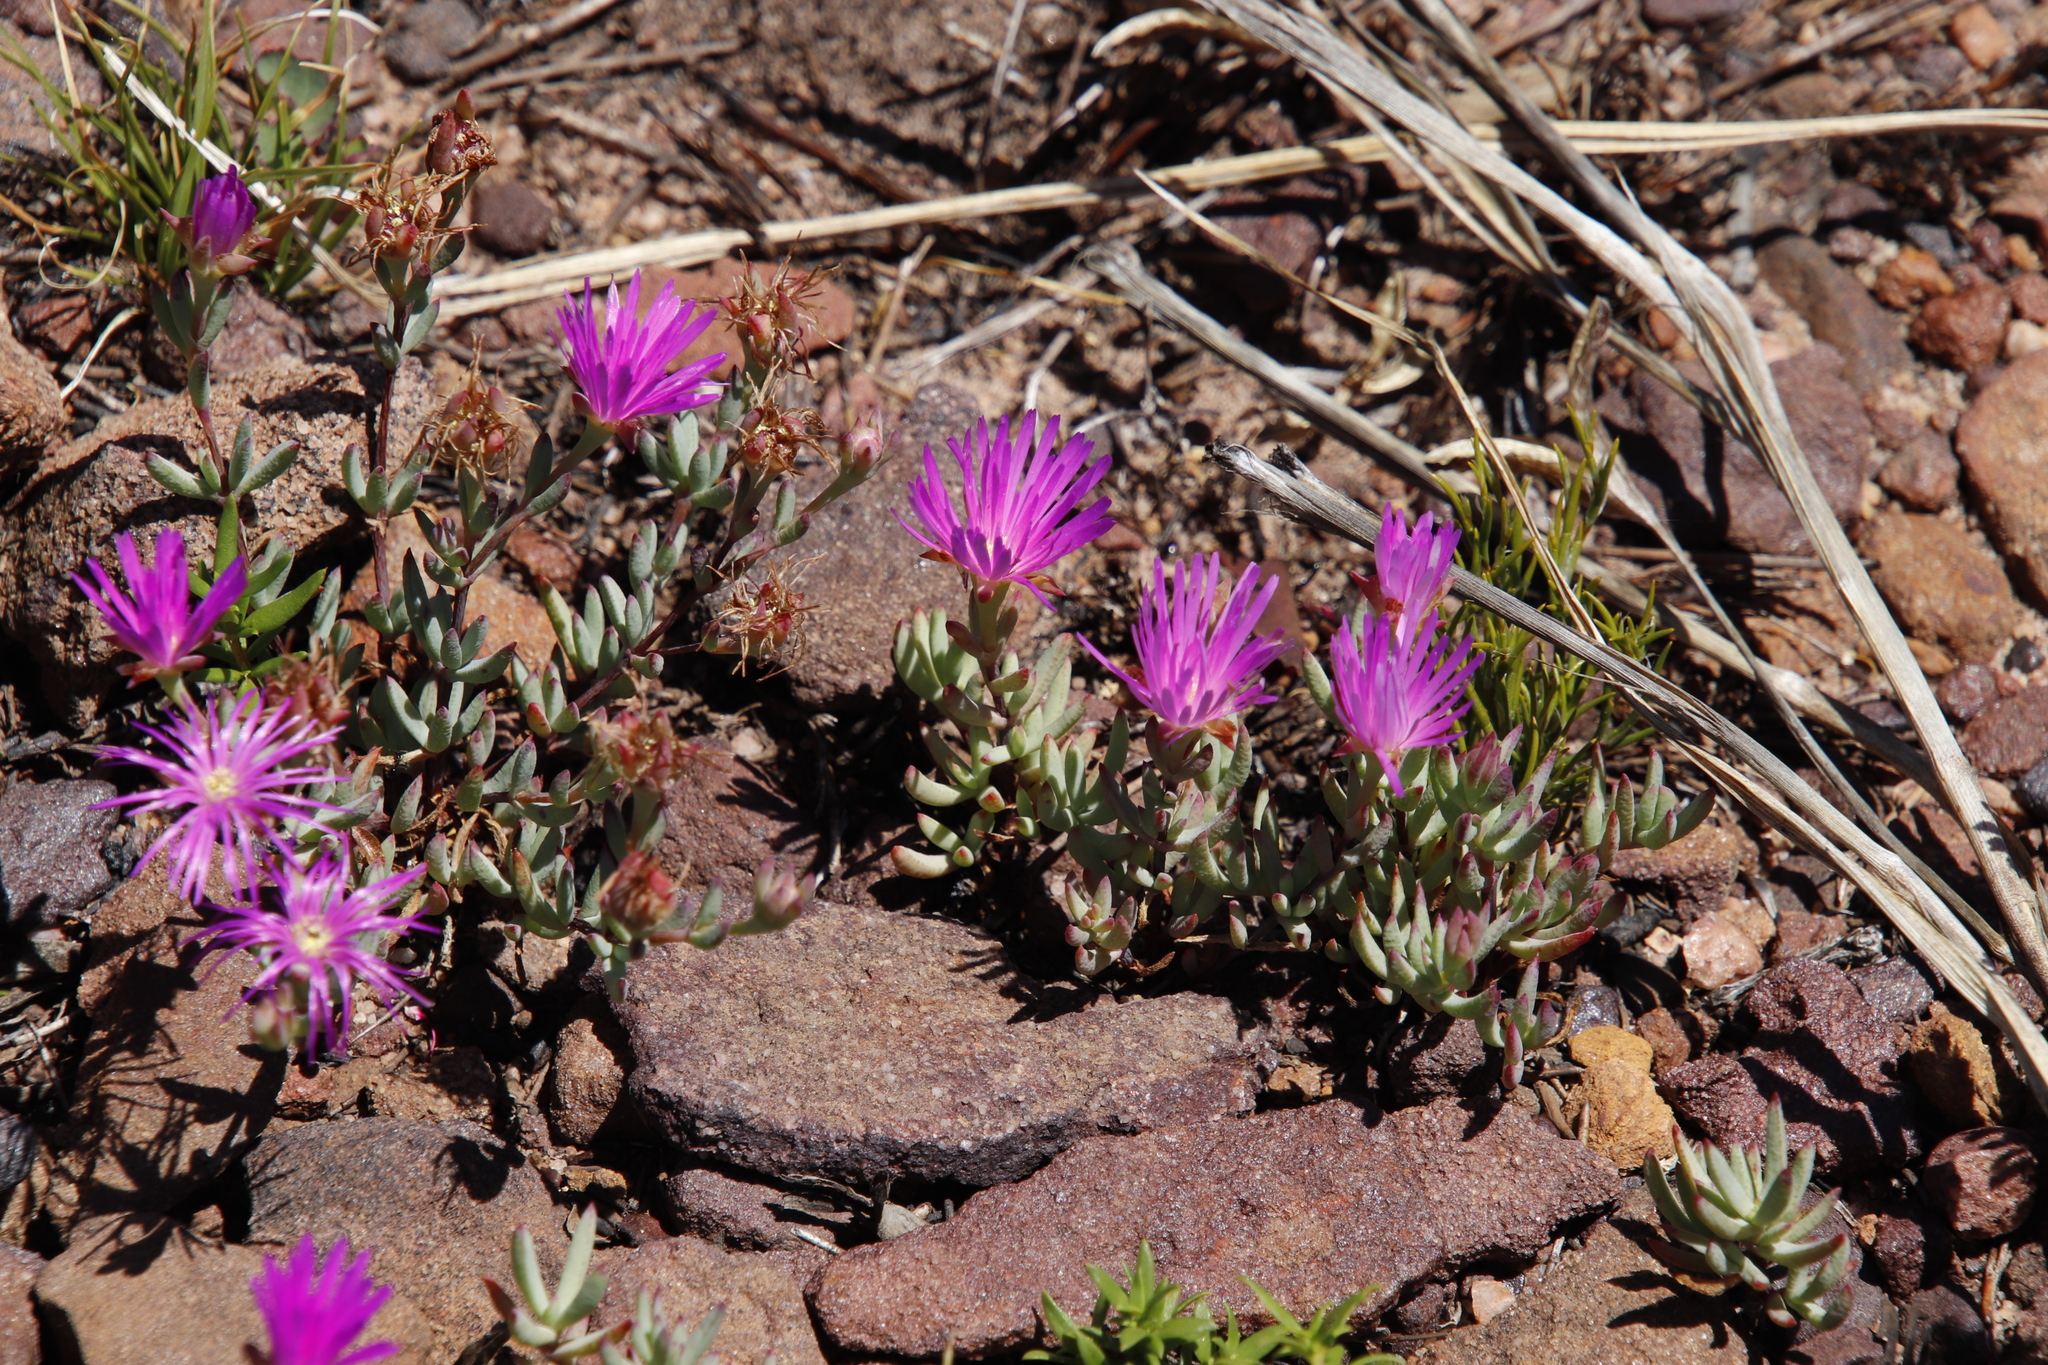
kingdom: Plantae
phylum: Tracheophyta
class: Magnoliopsida
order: Caryophyllales
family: Aizoaceae
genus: Lampranthus
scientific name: Lampranthus falcatus
